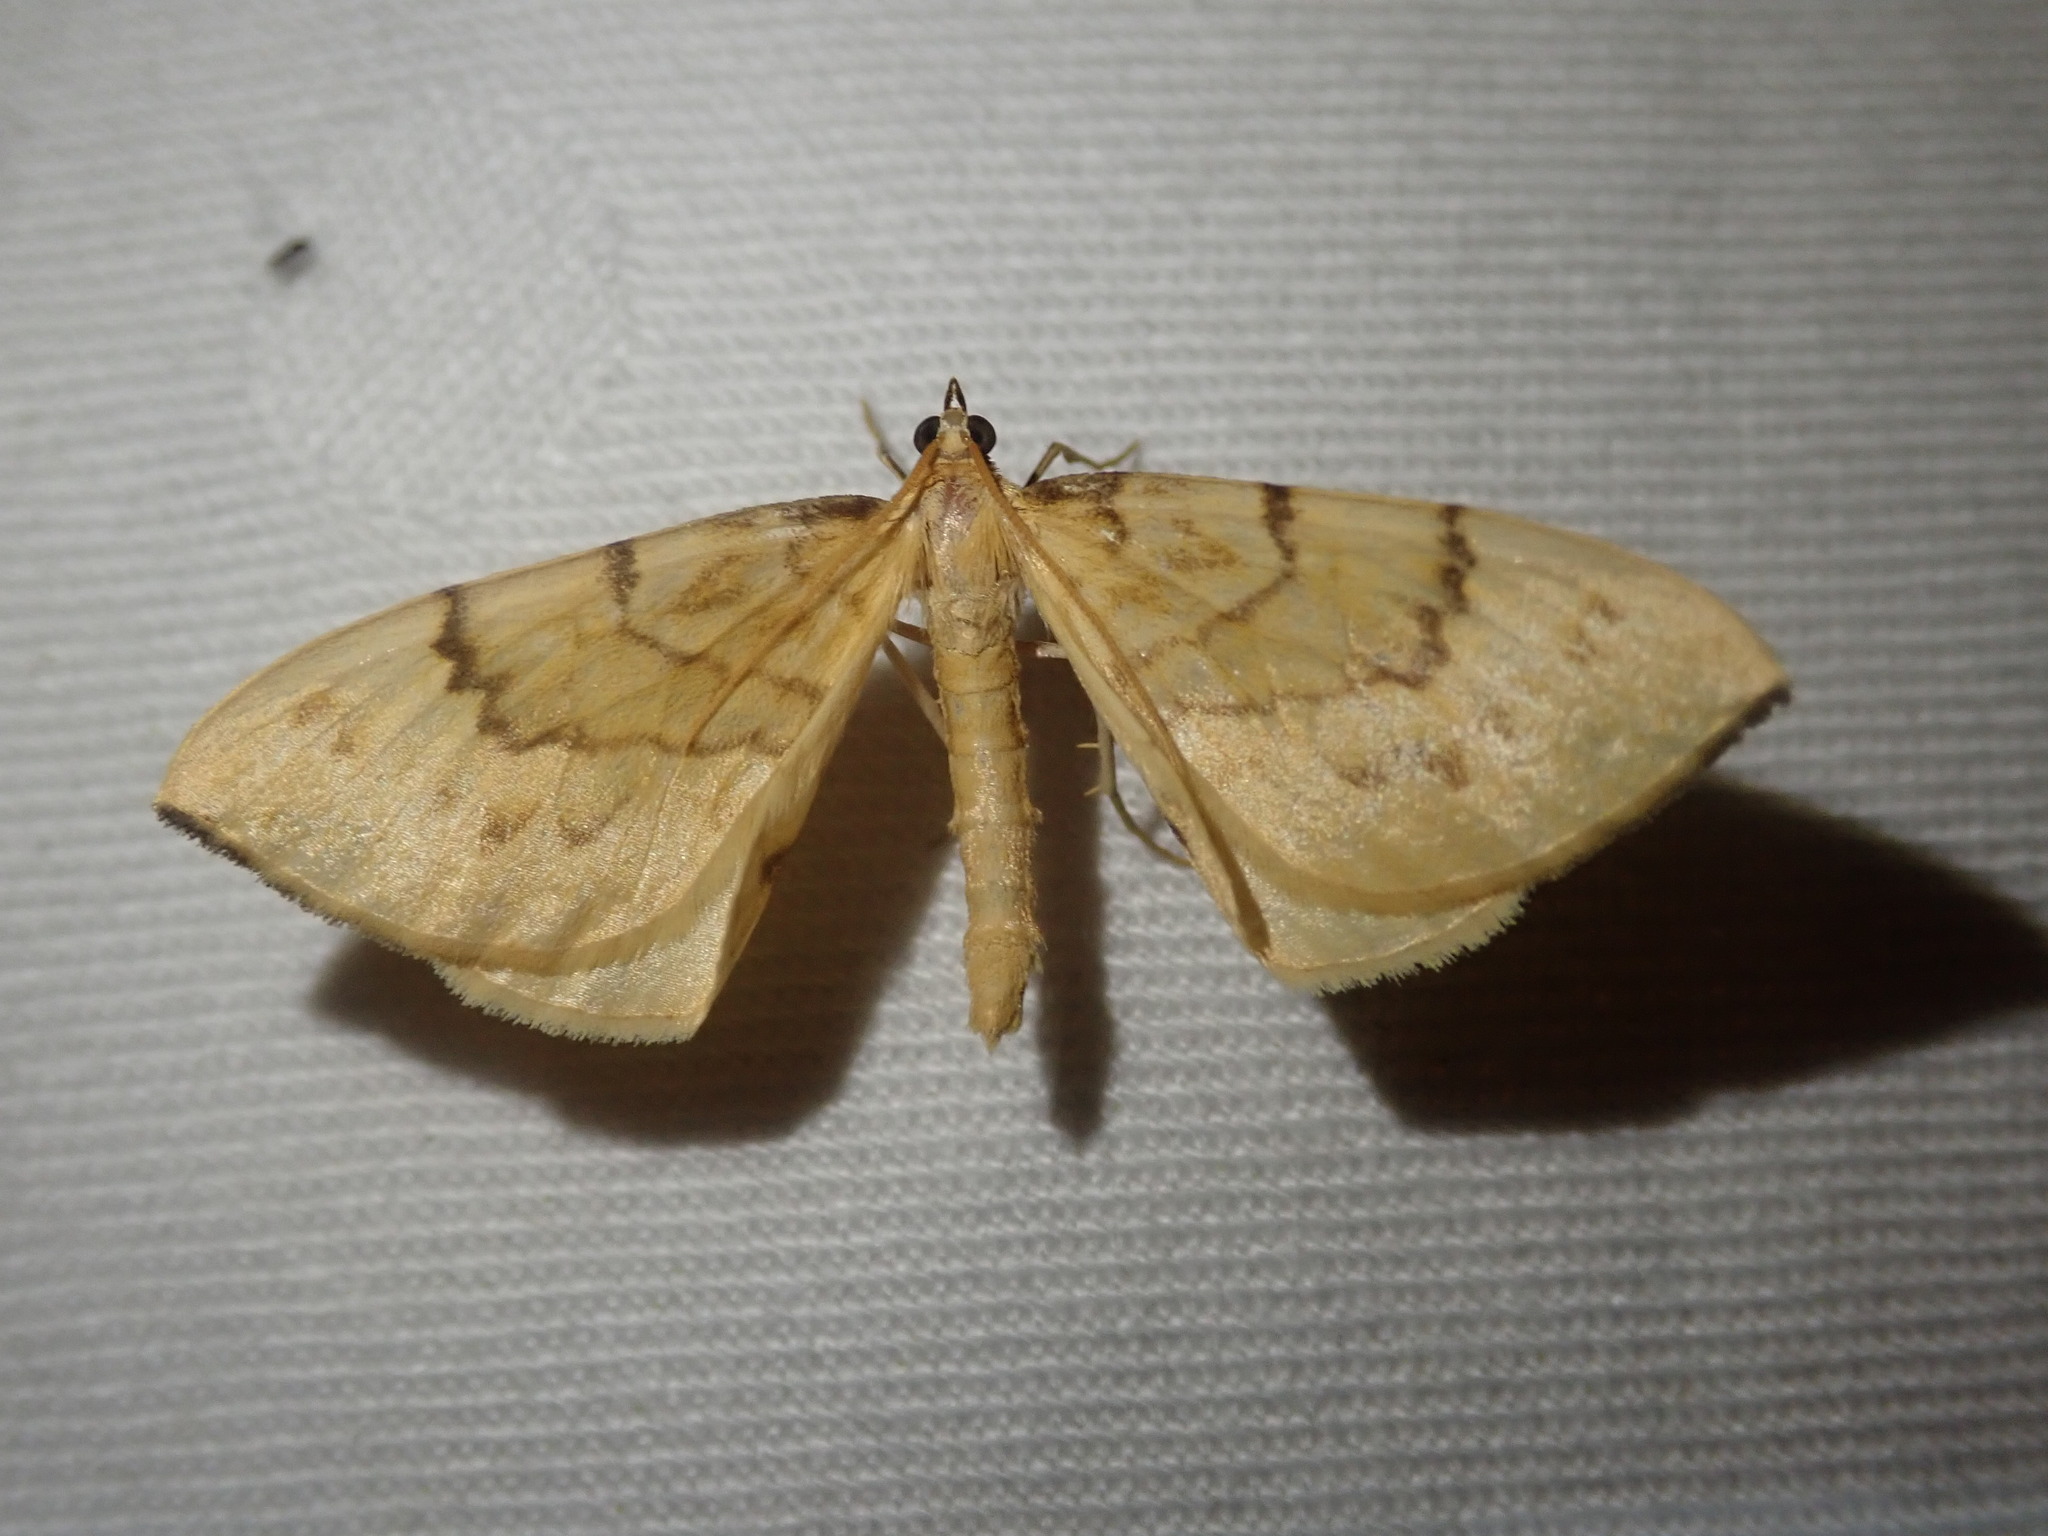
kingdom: Animalia
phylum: Arthropoda
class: Insecta
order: Lepidoptera
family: Geometridae
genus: Eulithis
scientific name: Eulithis pyraliata
